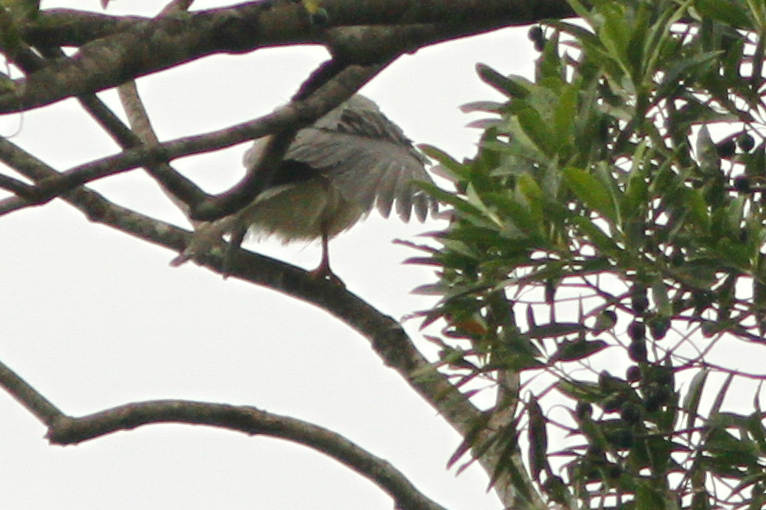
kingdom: Animalia
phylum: Chordata
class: Aves
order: Accipitriformes
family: Accipitridae
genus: Accipiter
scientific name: Accipiter novaehollandiae
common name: Grey goshawk
